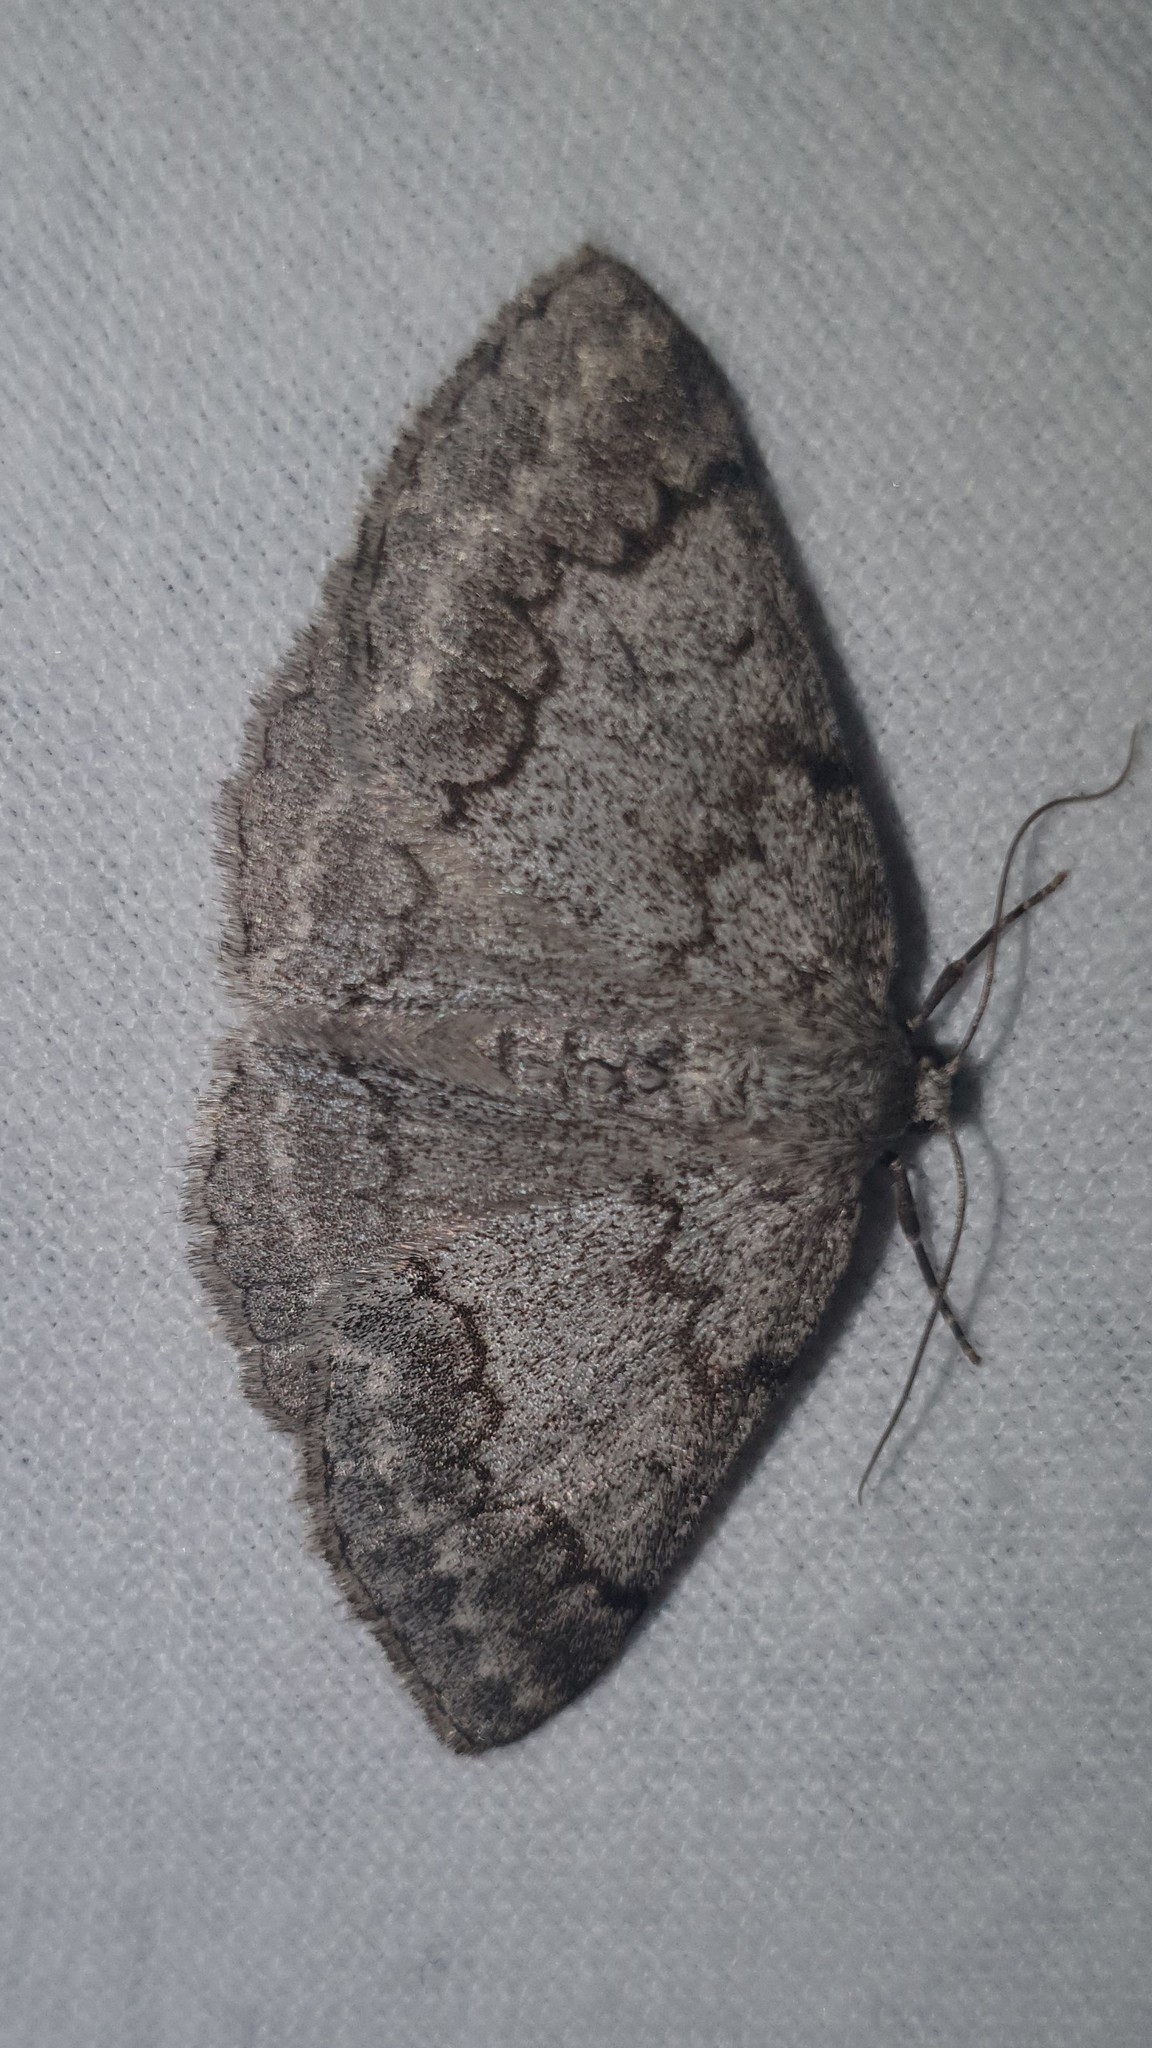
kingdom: Animalia
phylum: Arthropoda
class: Insecta
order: Lepidoptera
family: Geometridae
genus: Pseudoterpna
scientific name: Pseudoterpna coronillaria
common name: Jersey emerald
